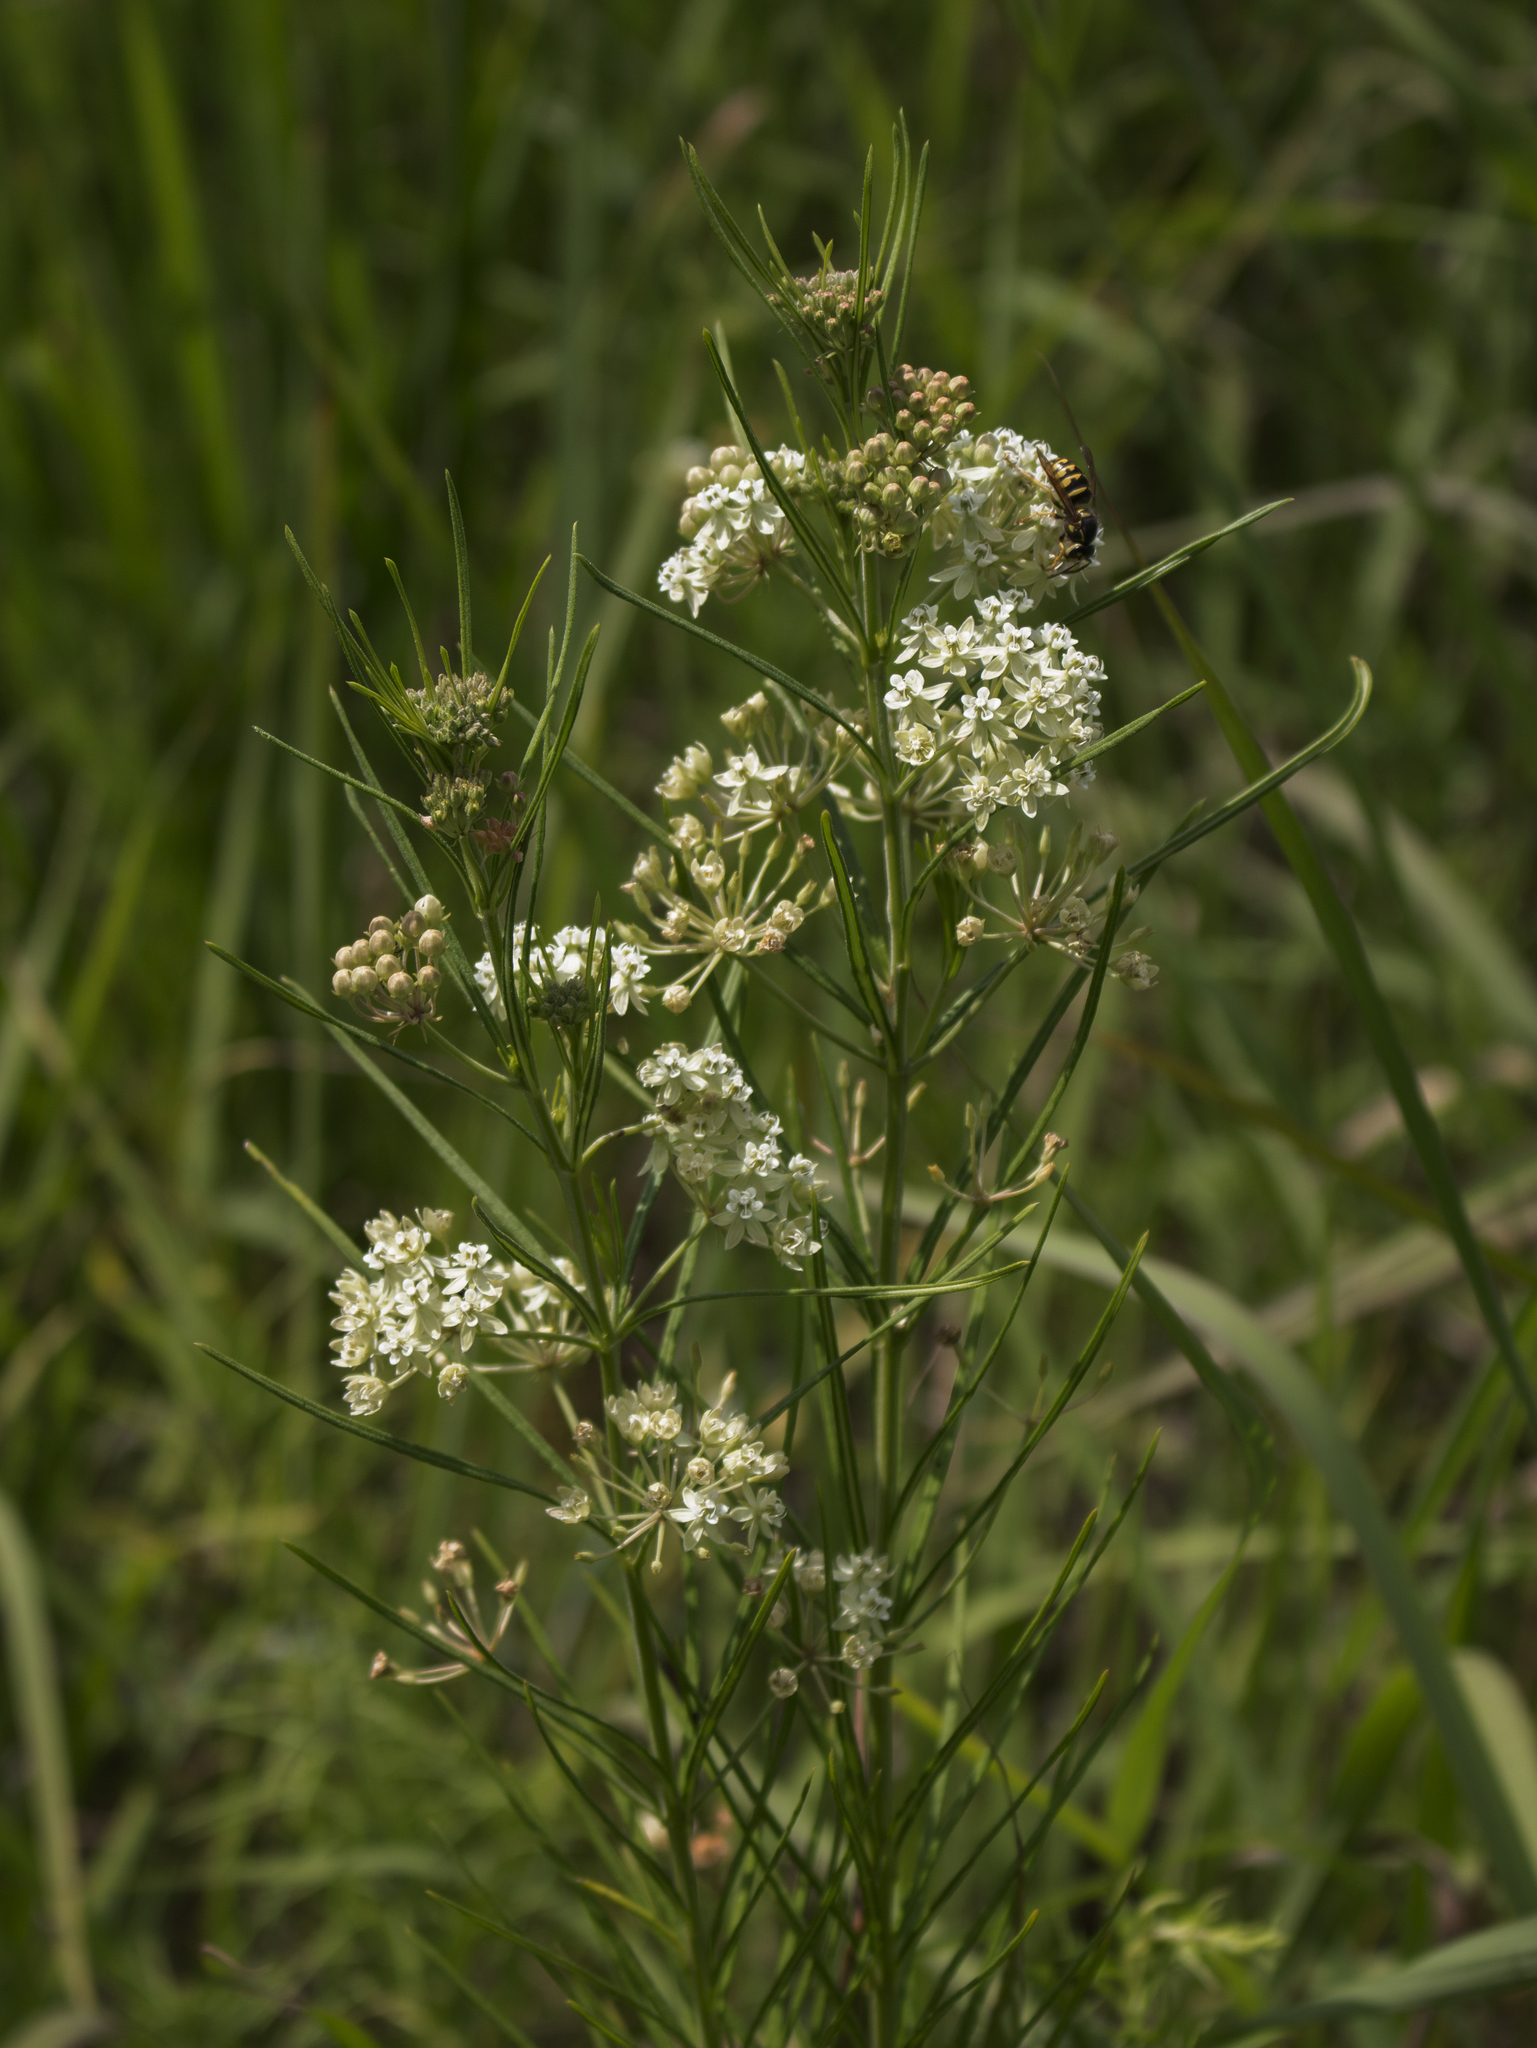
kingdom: Plantae
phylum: Tracheophyta
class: Magnoliopsida
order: Gentianales
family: Apocynaceae
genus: Asclepias
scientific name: Asclepias verticillata
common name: Eastern whorled milkweed
